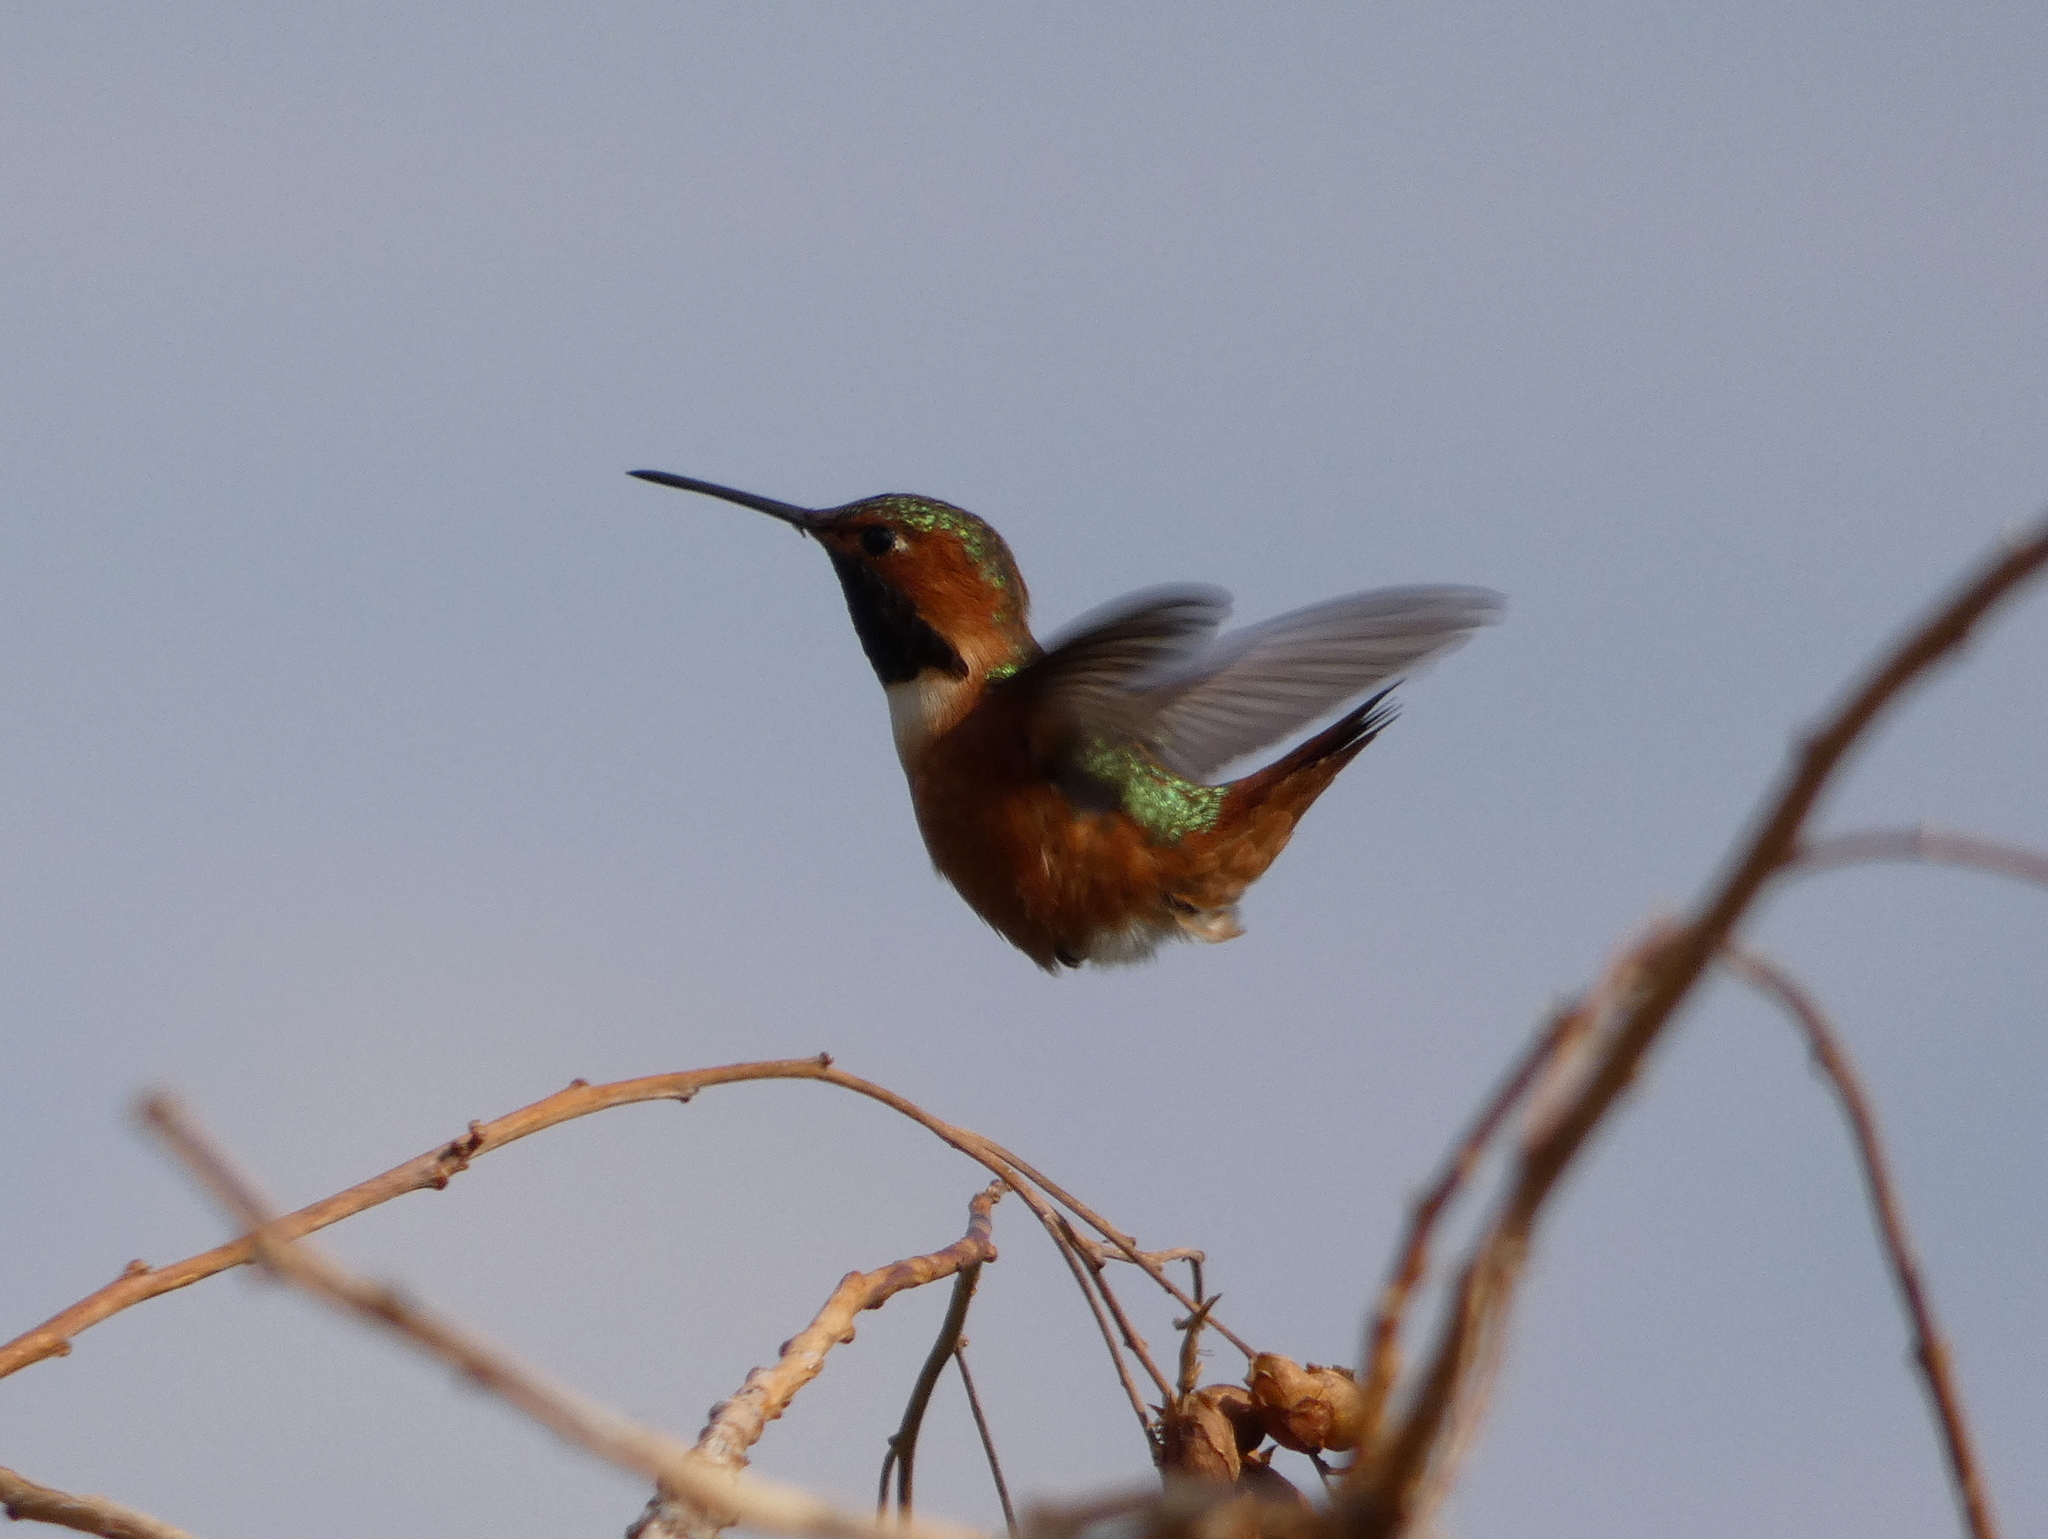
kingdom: Animalia
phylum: Chordata
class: Aves
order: Apodiformes
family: Trochilidae
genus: Selasphorus
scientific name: Selasphorus sasin
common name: Allen's hummingbird
